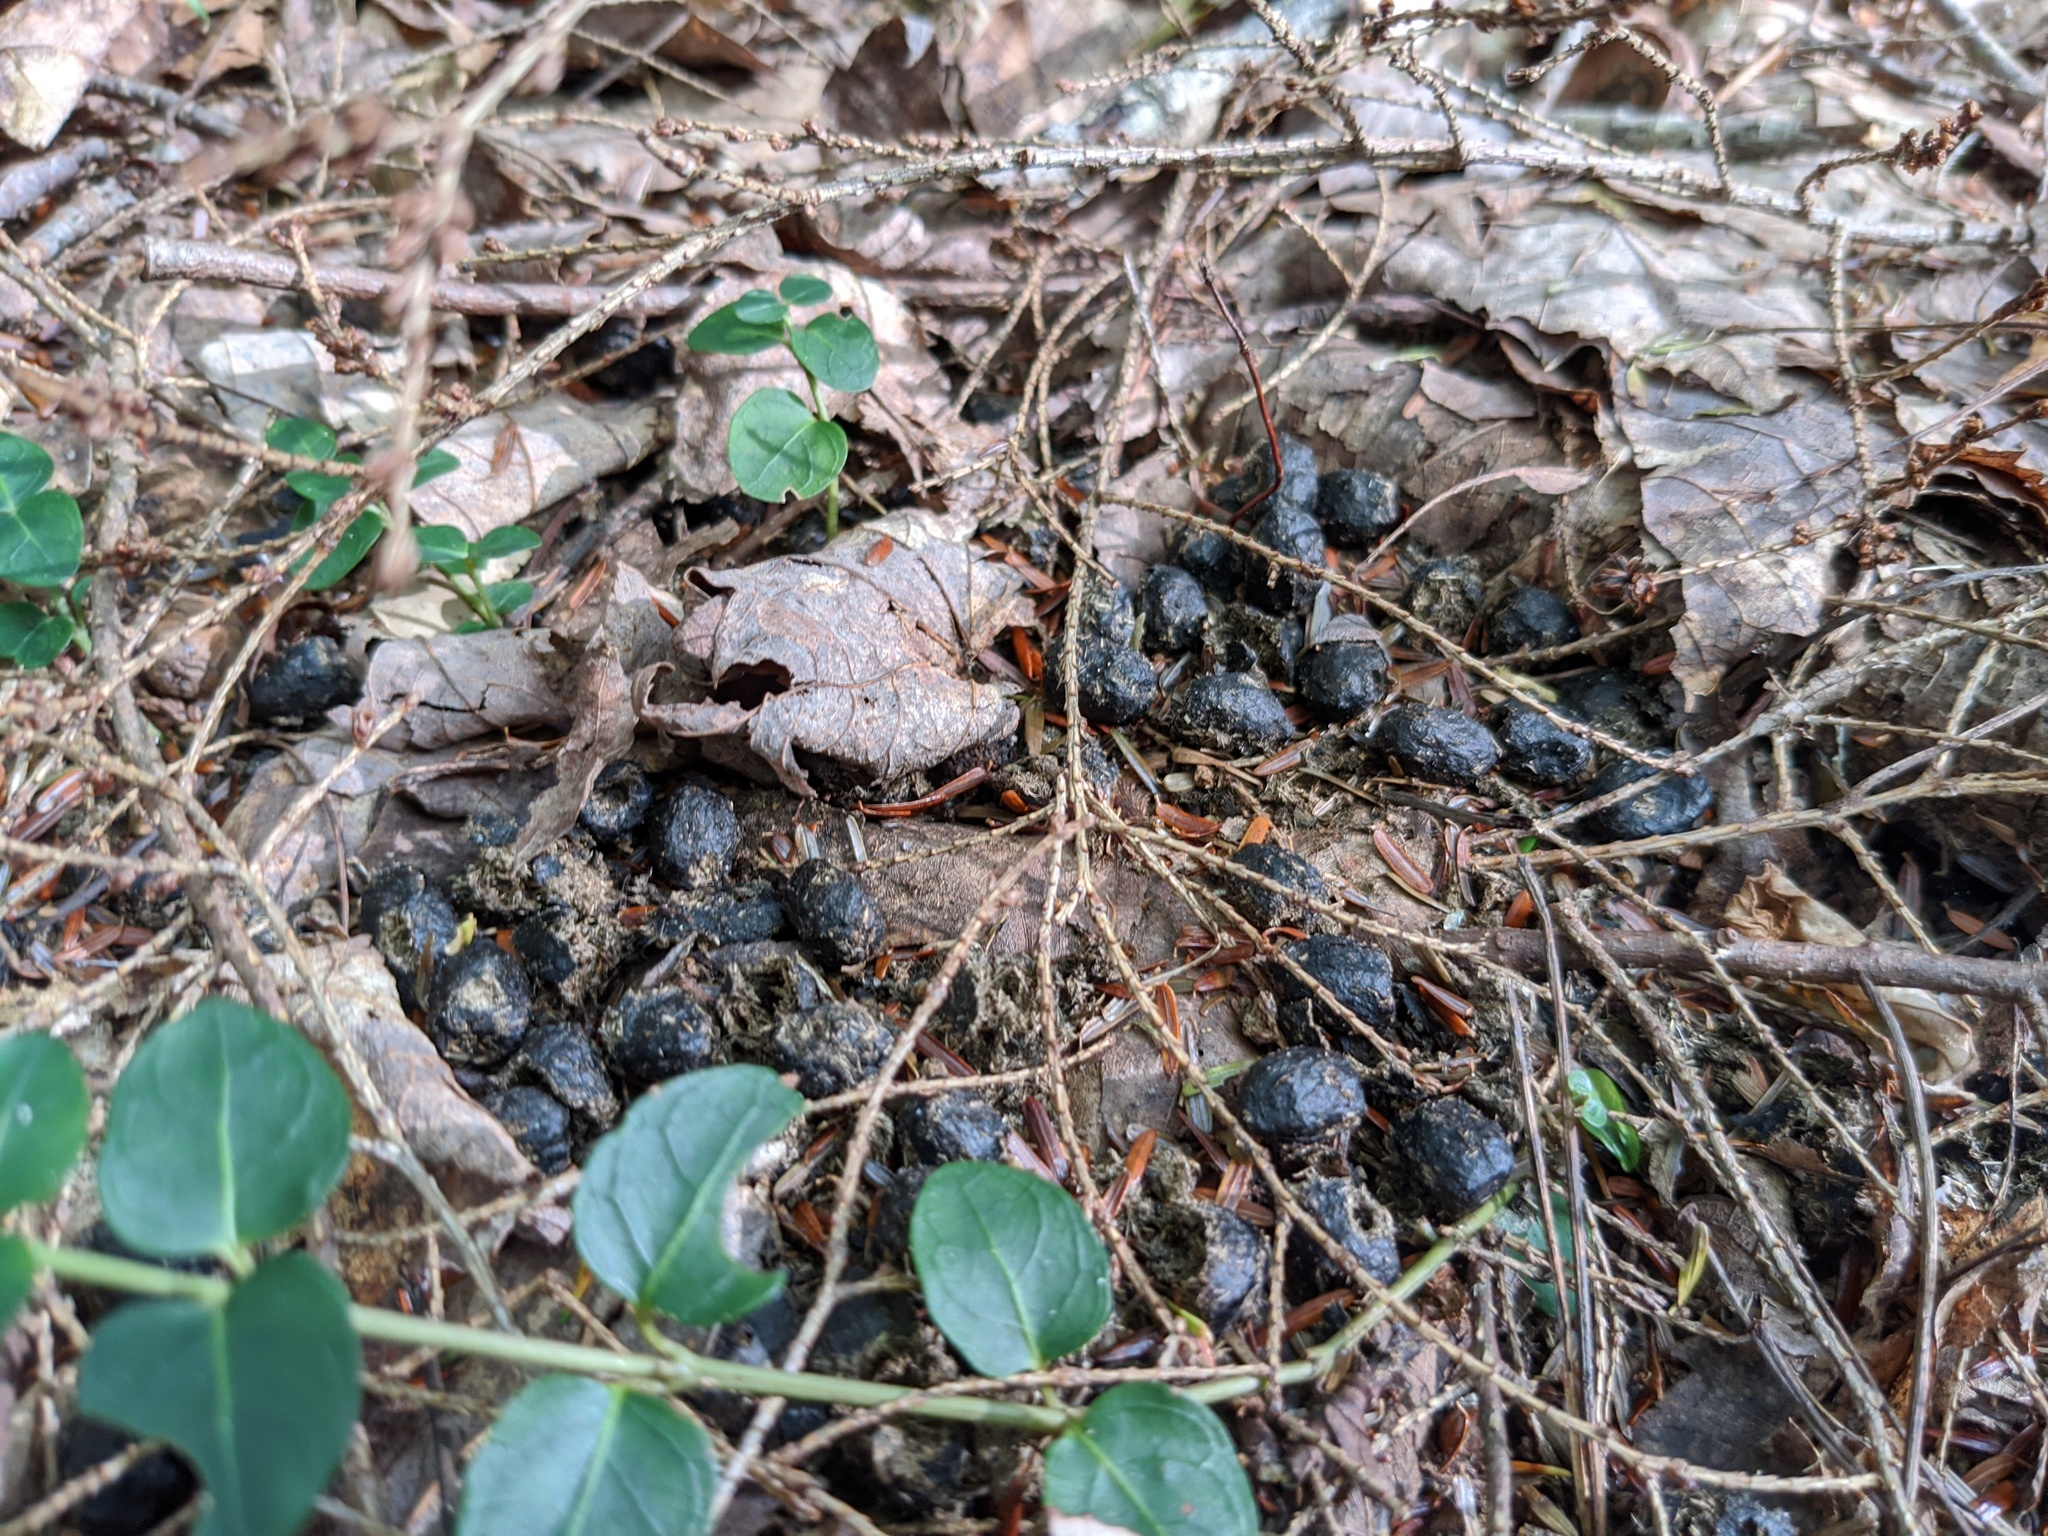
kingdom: Animalia
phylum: Chordata
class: Mammalia
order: Artiodactyla
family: Cervidae
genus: Odocoileus
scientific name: Odocoileus virginianus
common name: White-tailed deer
